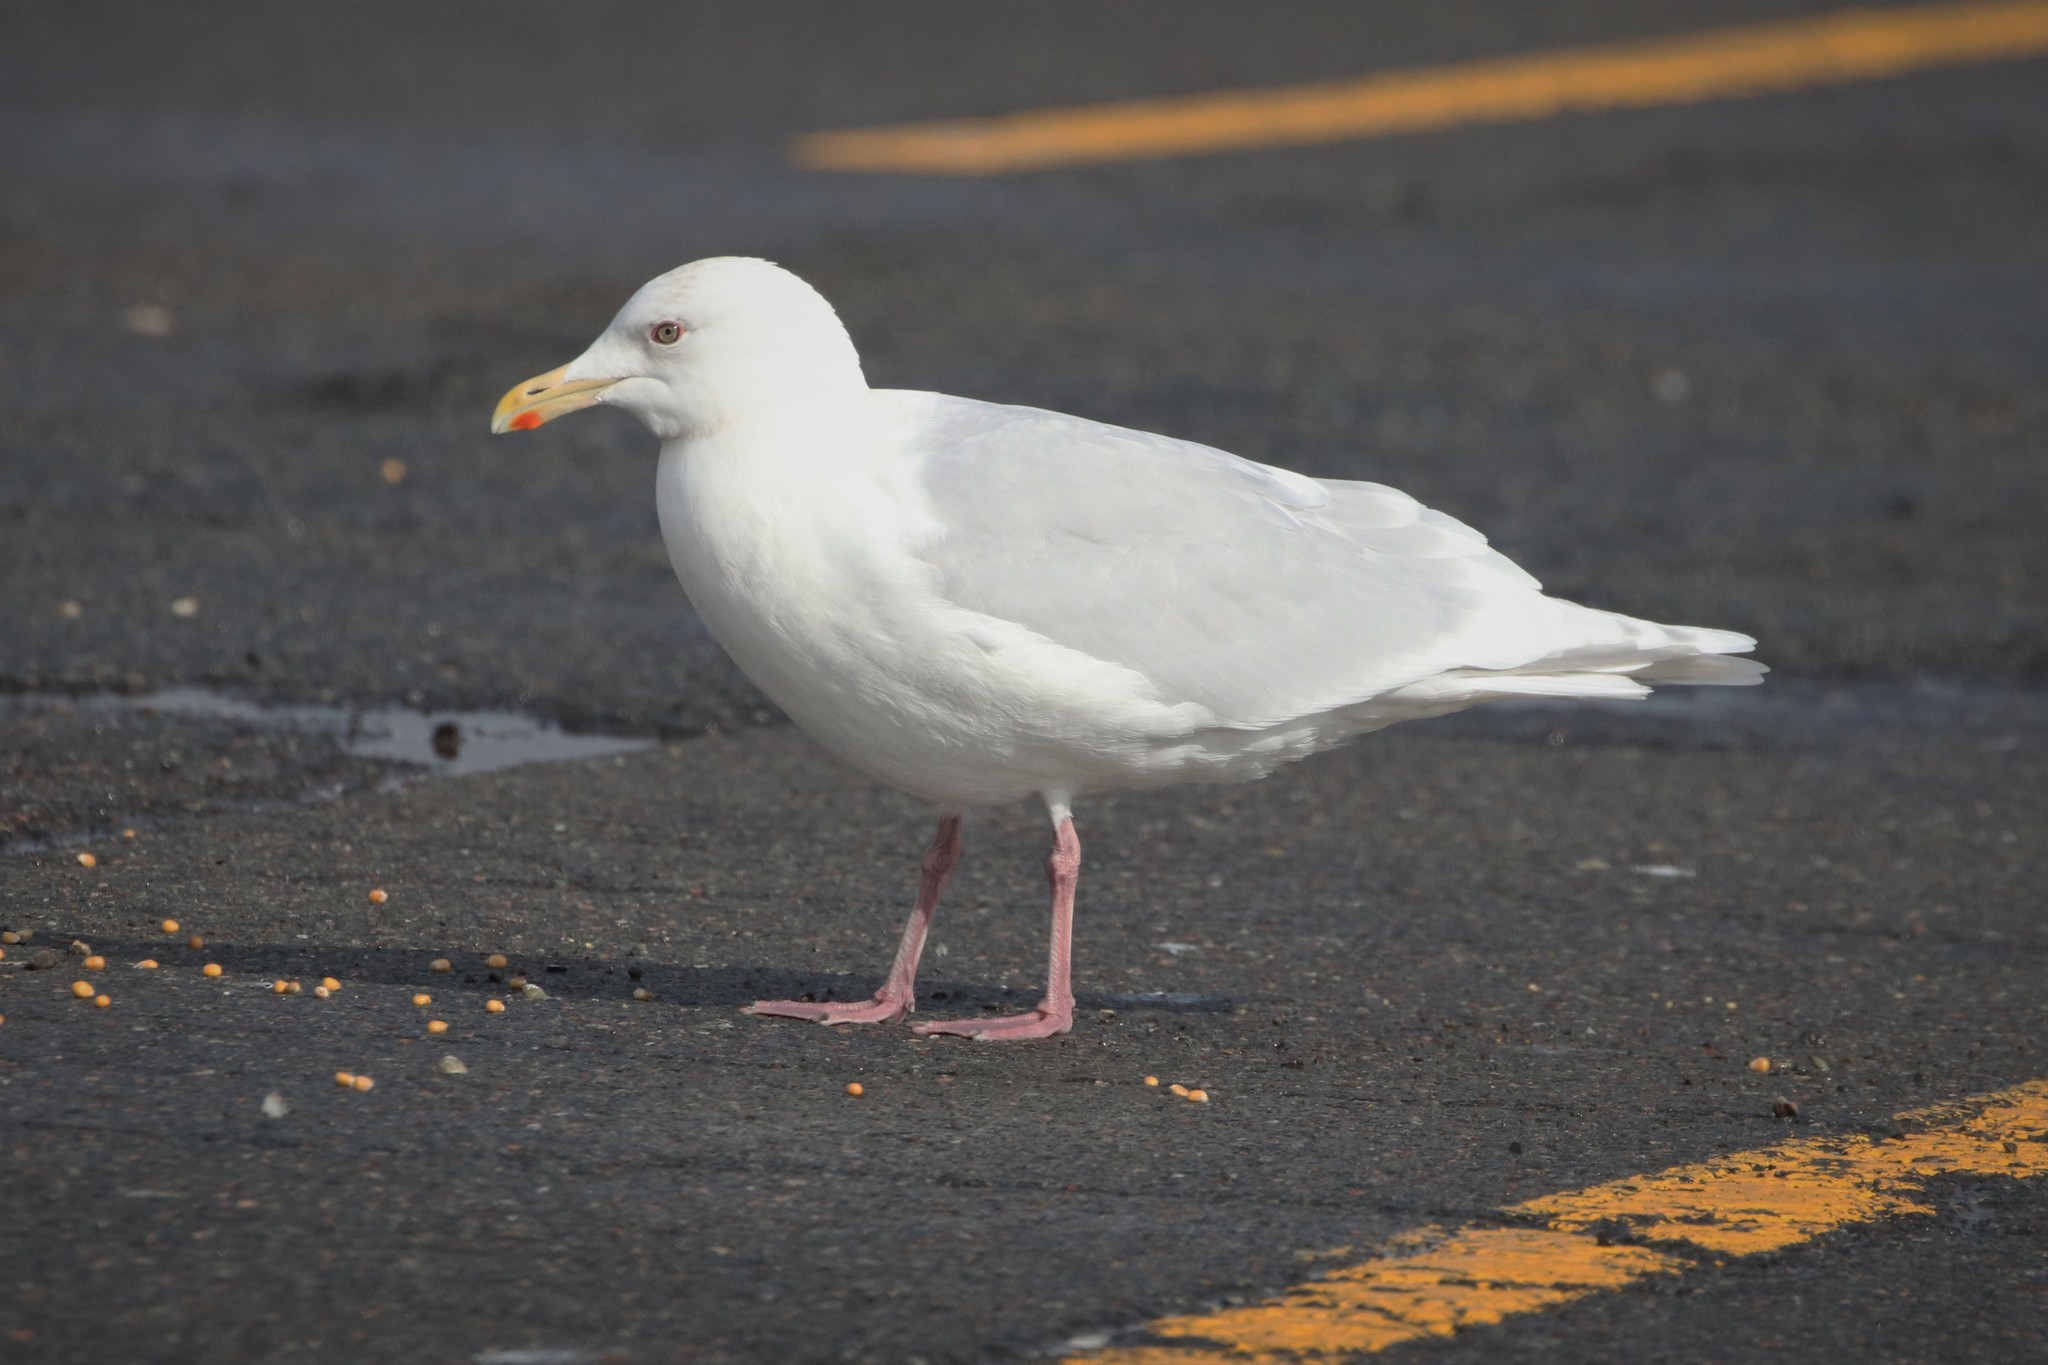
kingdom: Animalia
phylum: Chordata
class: Aves
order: Charadriiformes
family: Laridae
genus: Larus
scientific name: Larus glaucoides
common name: Iceland gull
